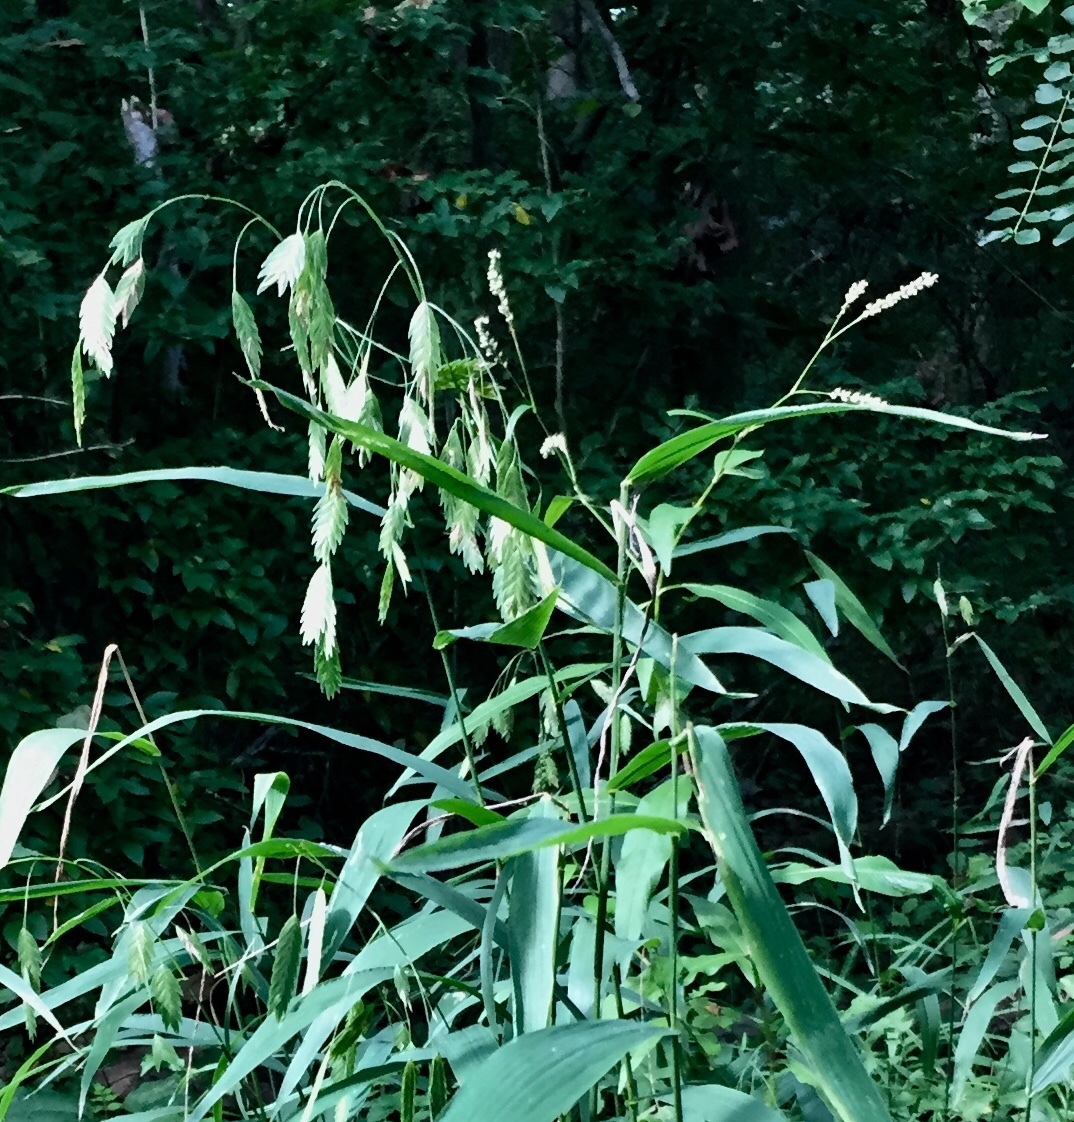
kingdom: Plantae
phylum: Tracheophyta
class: Liliopsida
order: Poales
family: Poaceae
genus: Chasmanthium
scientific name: Chasmanthium latifolium
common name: Broad-leaved chasmanthium
